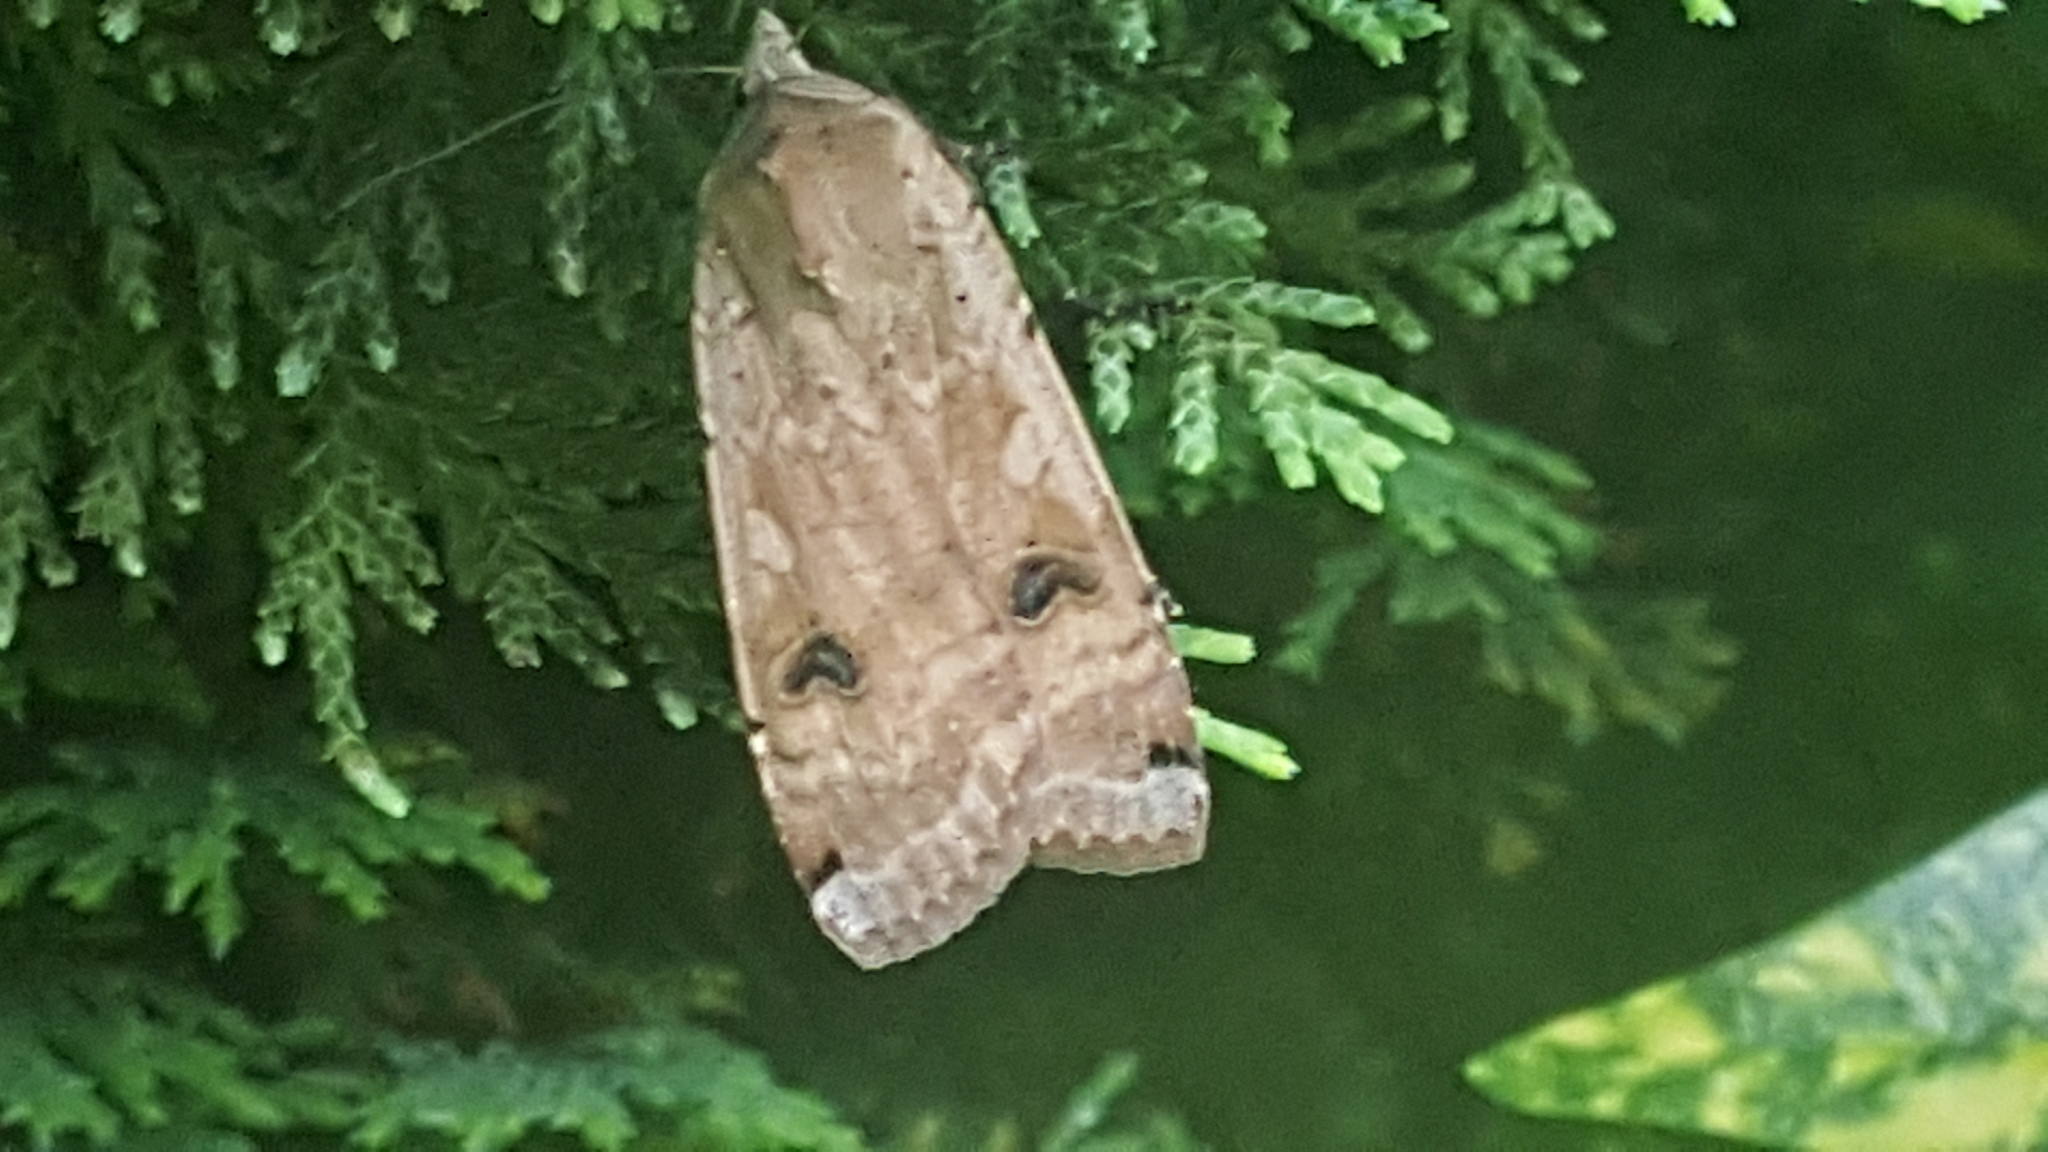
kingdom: Animalia
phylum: Arthropoda
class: Insecta
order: Lepidoptera
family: Noctuidae
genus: Noctua
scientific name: Noctua pronuba
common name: Large yellow underwing
